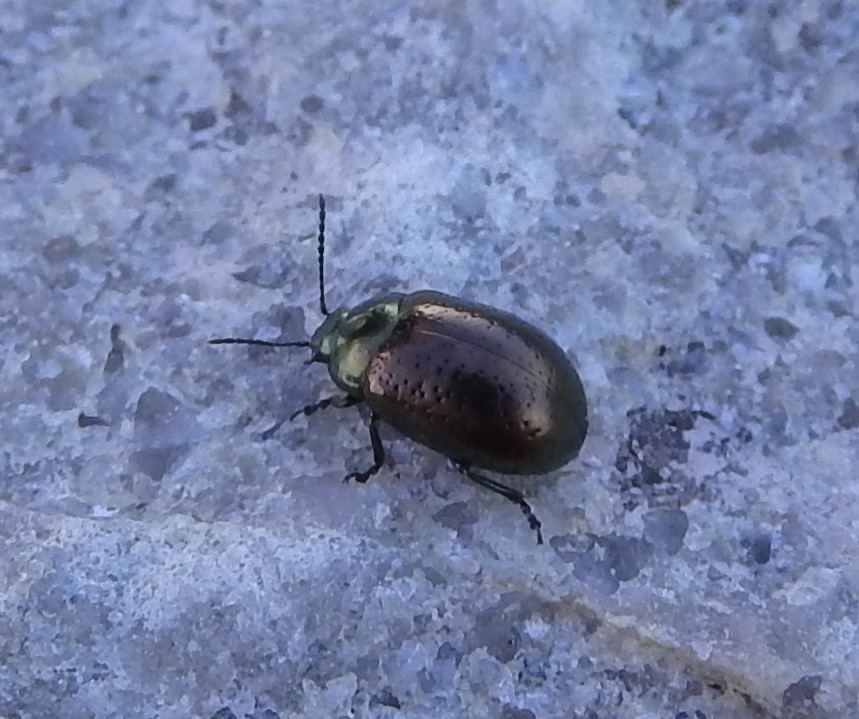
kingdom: Animalia
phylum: Arthropoda
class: Insecta
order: Coleoptera
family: Chrysomelidae
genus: Chrysolina
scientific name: Chrysolina hyperici
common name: St. johnswort beetle
